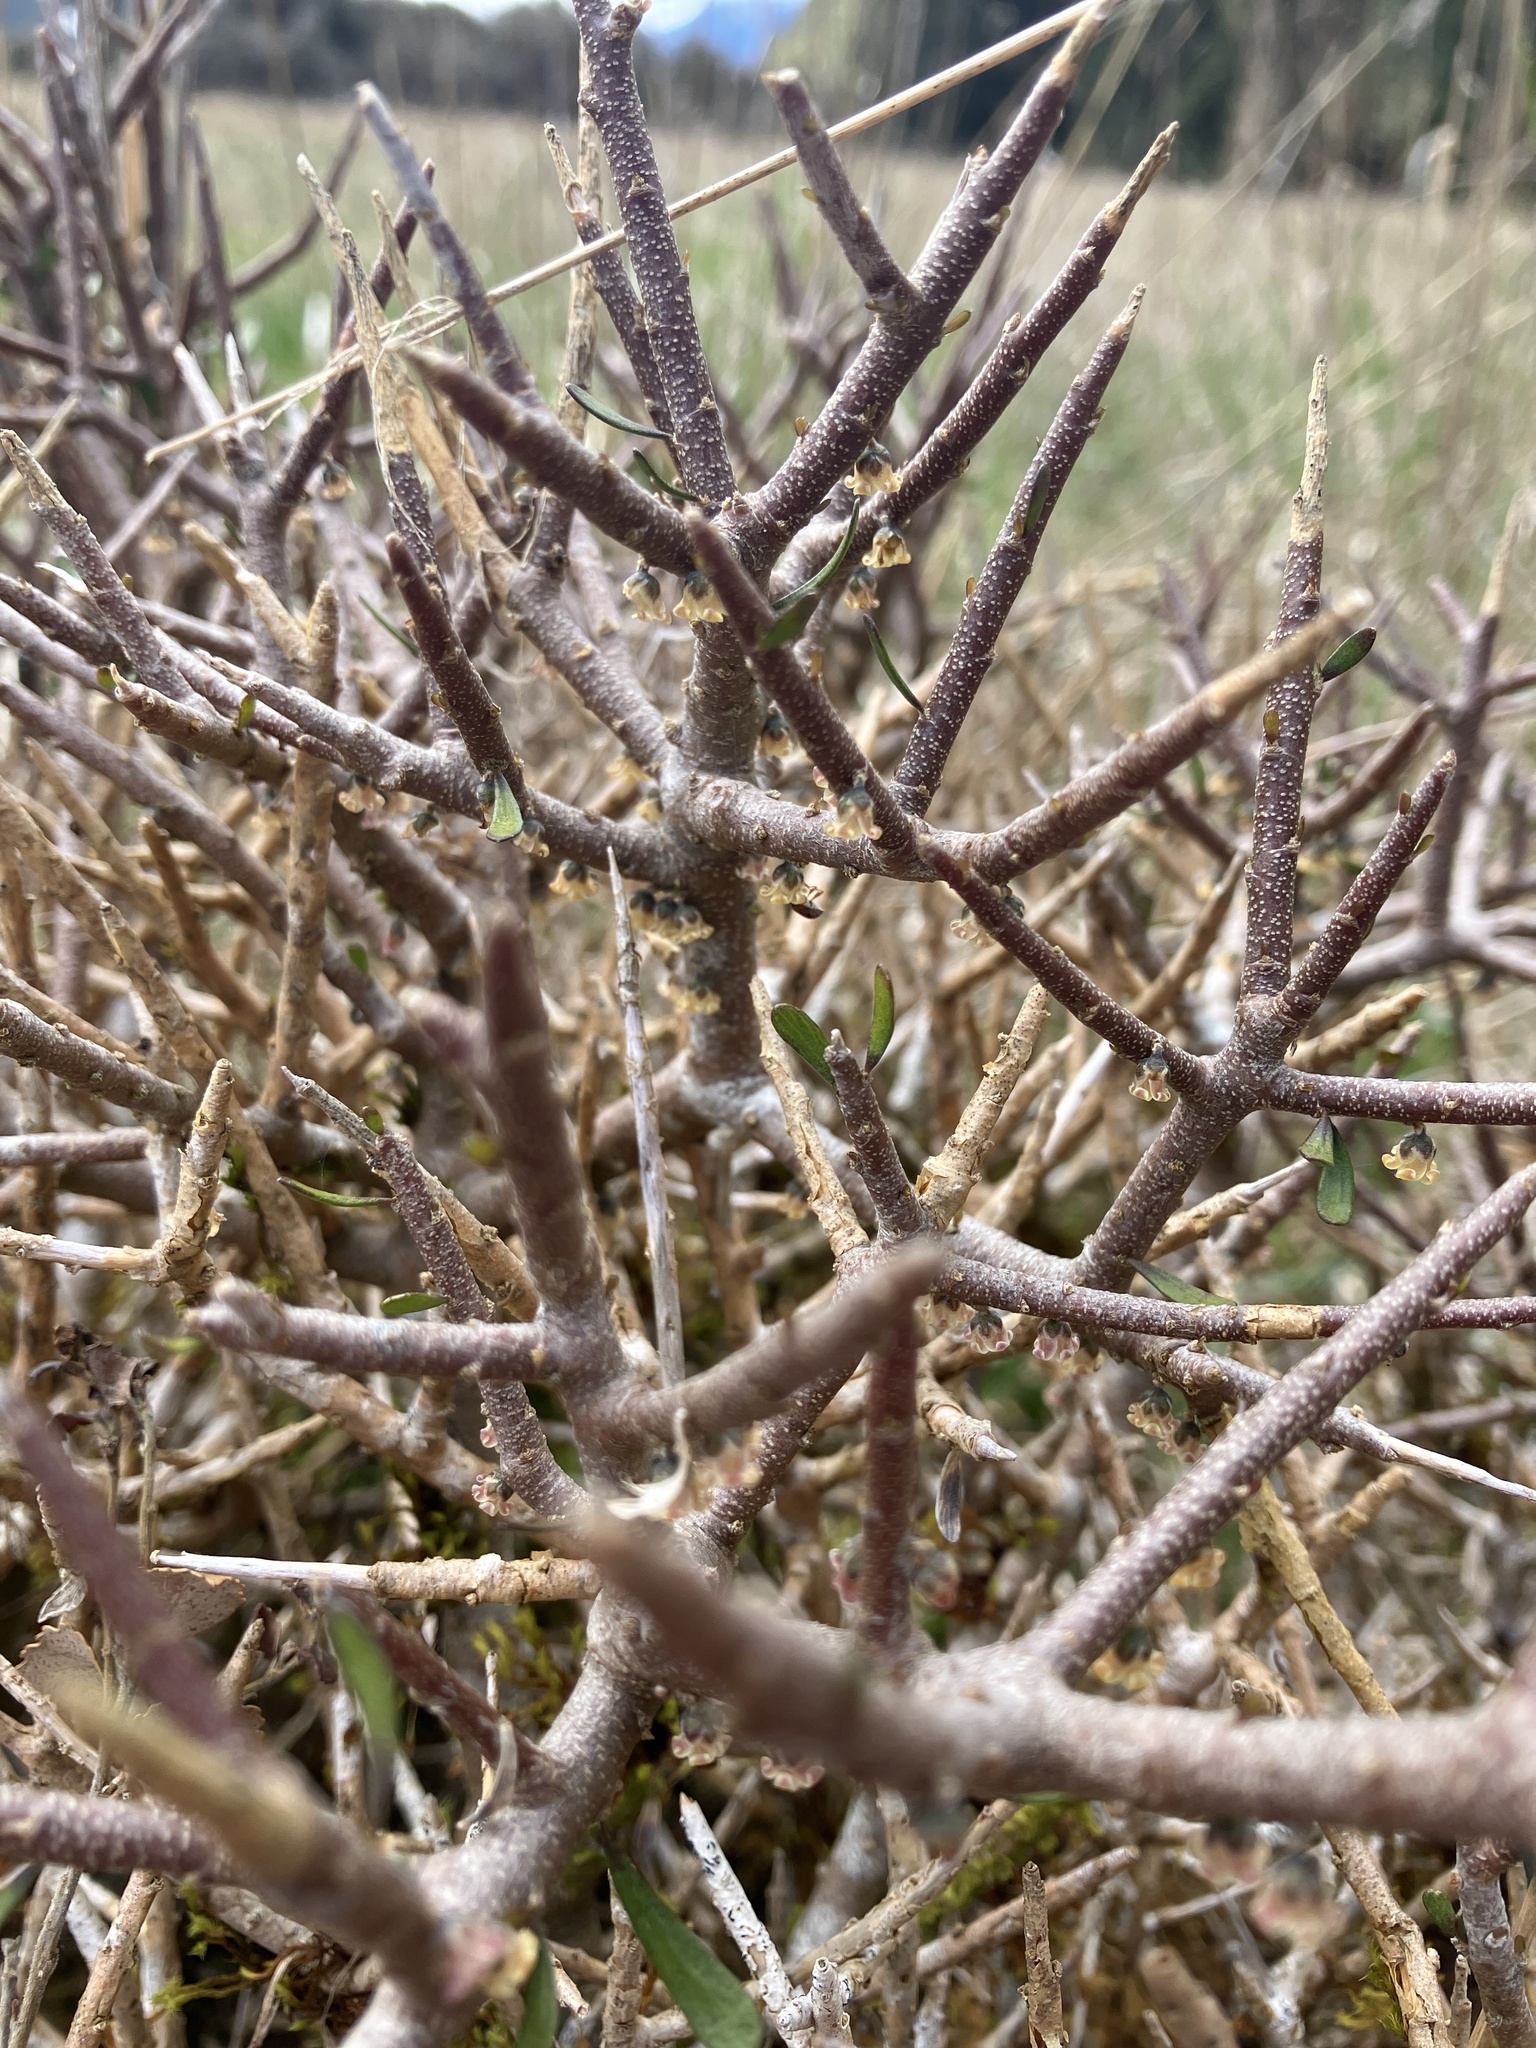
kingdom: Plantae
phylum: Tracheophyta
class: Magnoliopsida
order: Malpighiales
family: Violaceae
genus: Melicytus
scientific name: Melicytus alpinus
